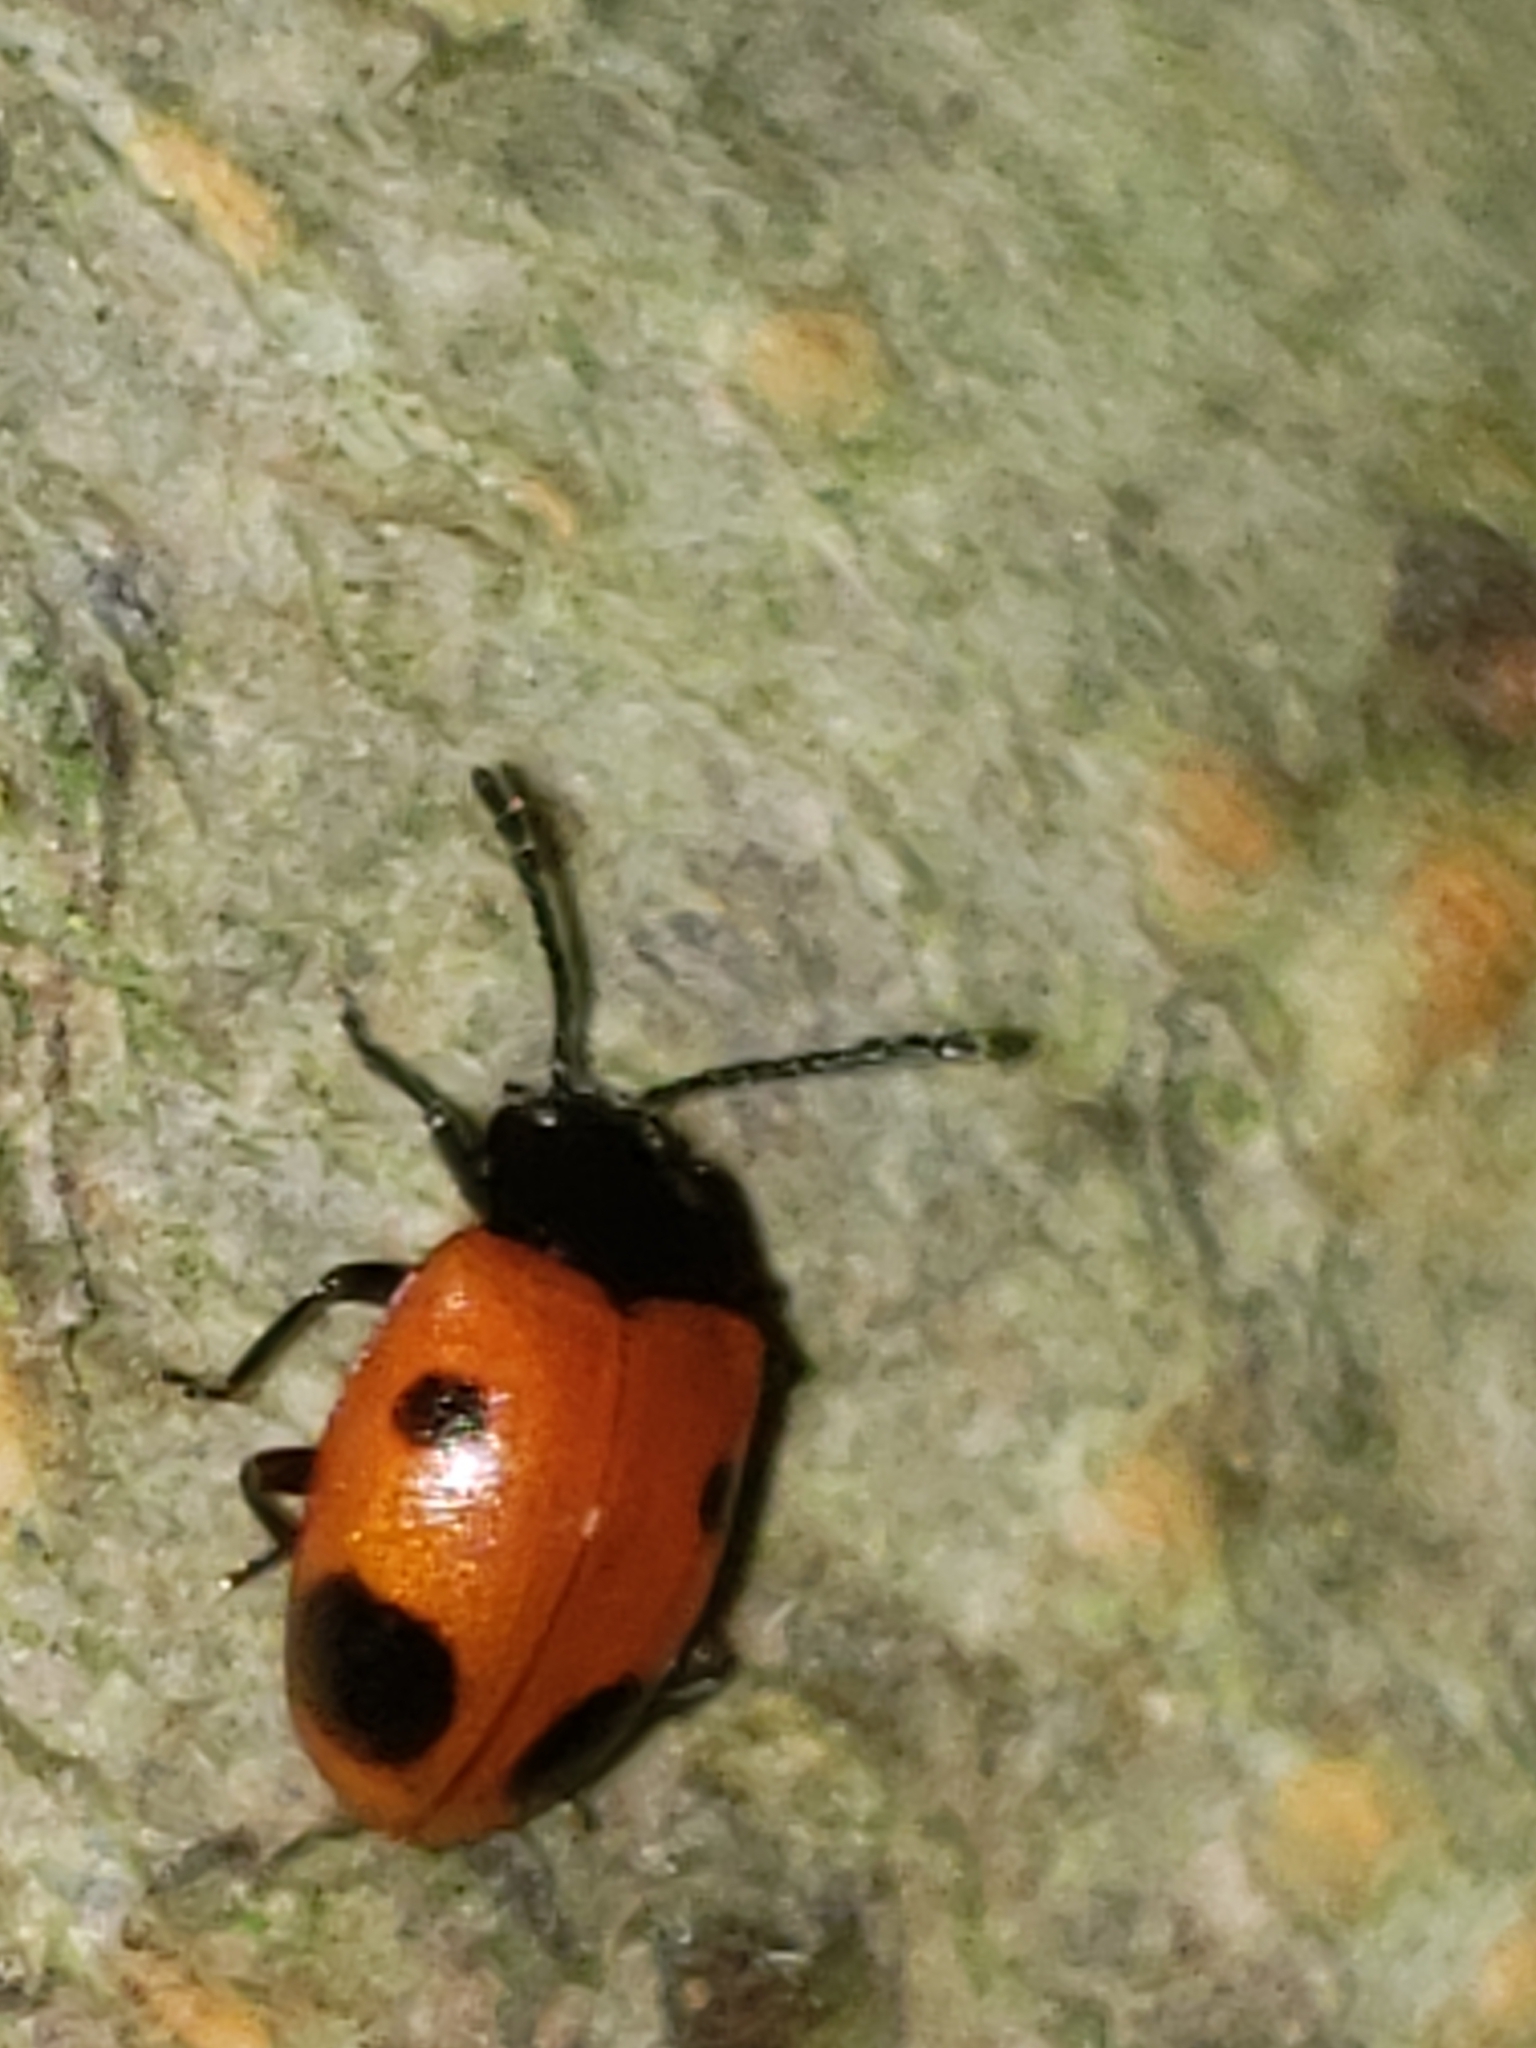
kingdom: Animalia
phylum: Arthropoda
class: Insecta
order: Coleoptera
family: Endomychidae
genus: Endomychus
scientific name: Endomychus biguttatus
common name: Handsome fungus beetle
